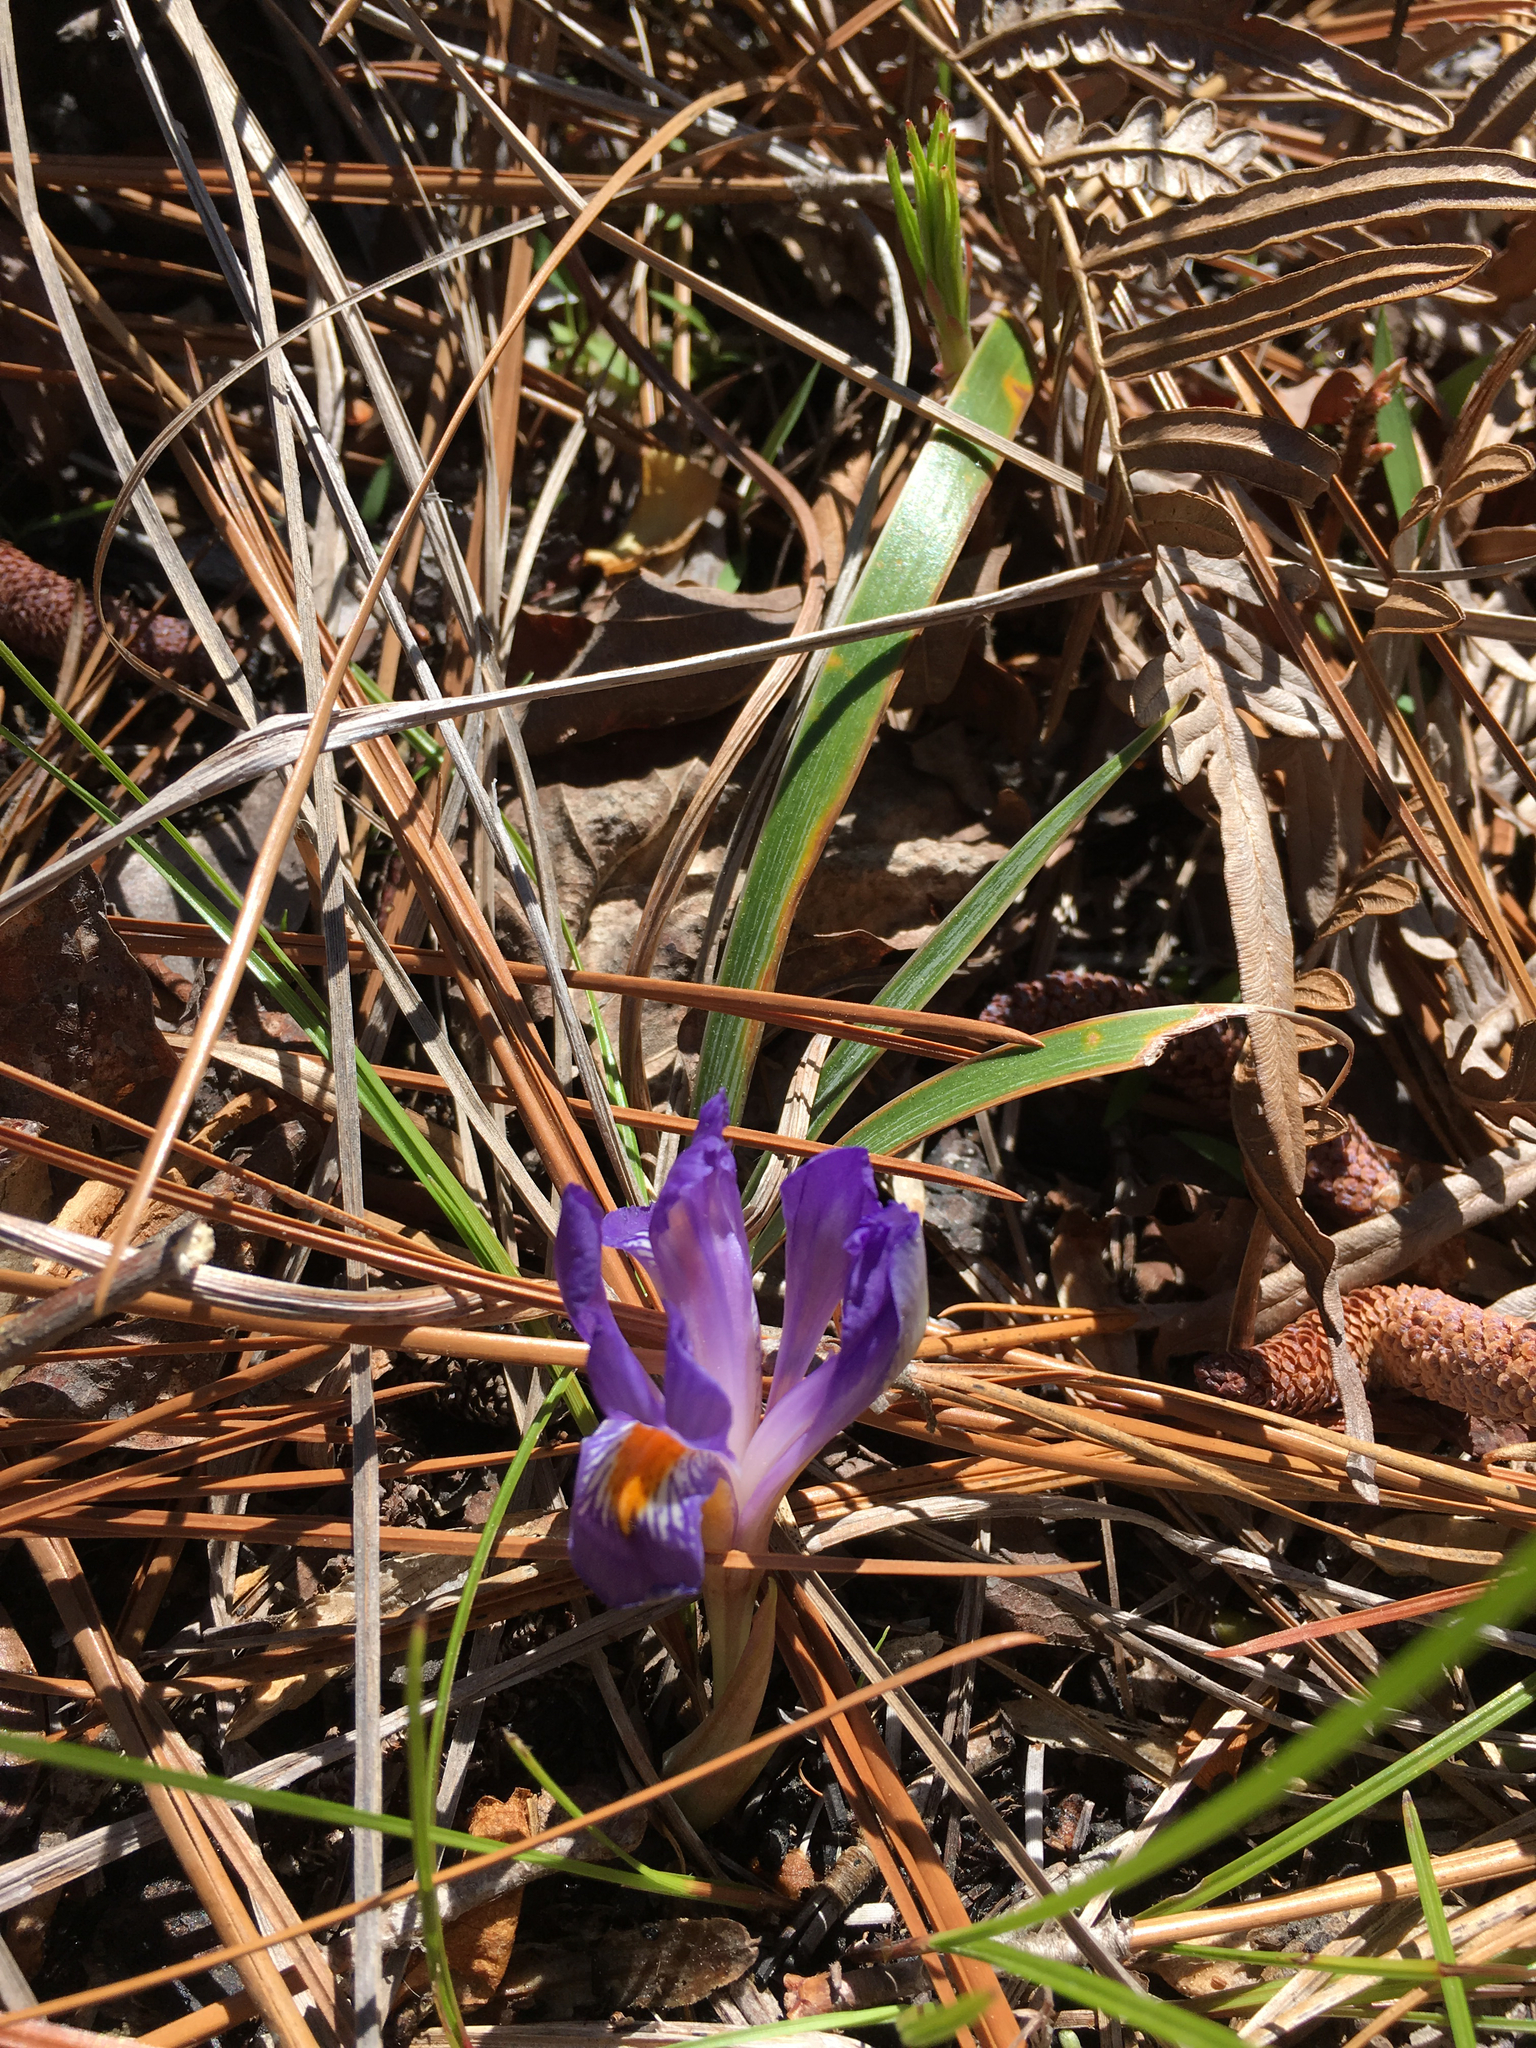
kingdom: Plantae
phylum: Tracheophyta
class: Liliopsida
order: Asparagales
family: Iridaceae
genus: Iris
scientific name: Iris verna
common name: Dwarf iris
